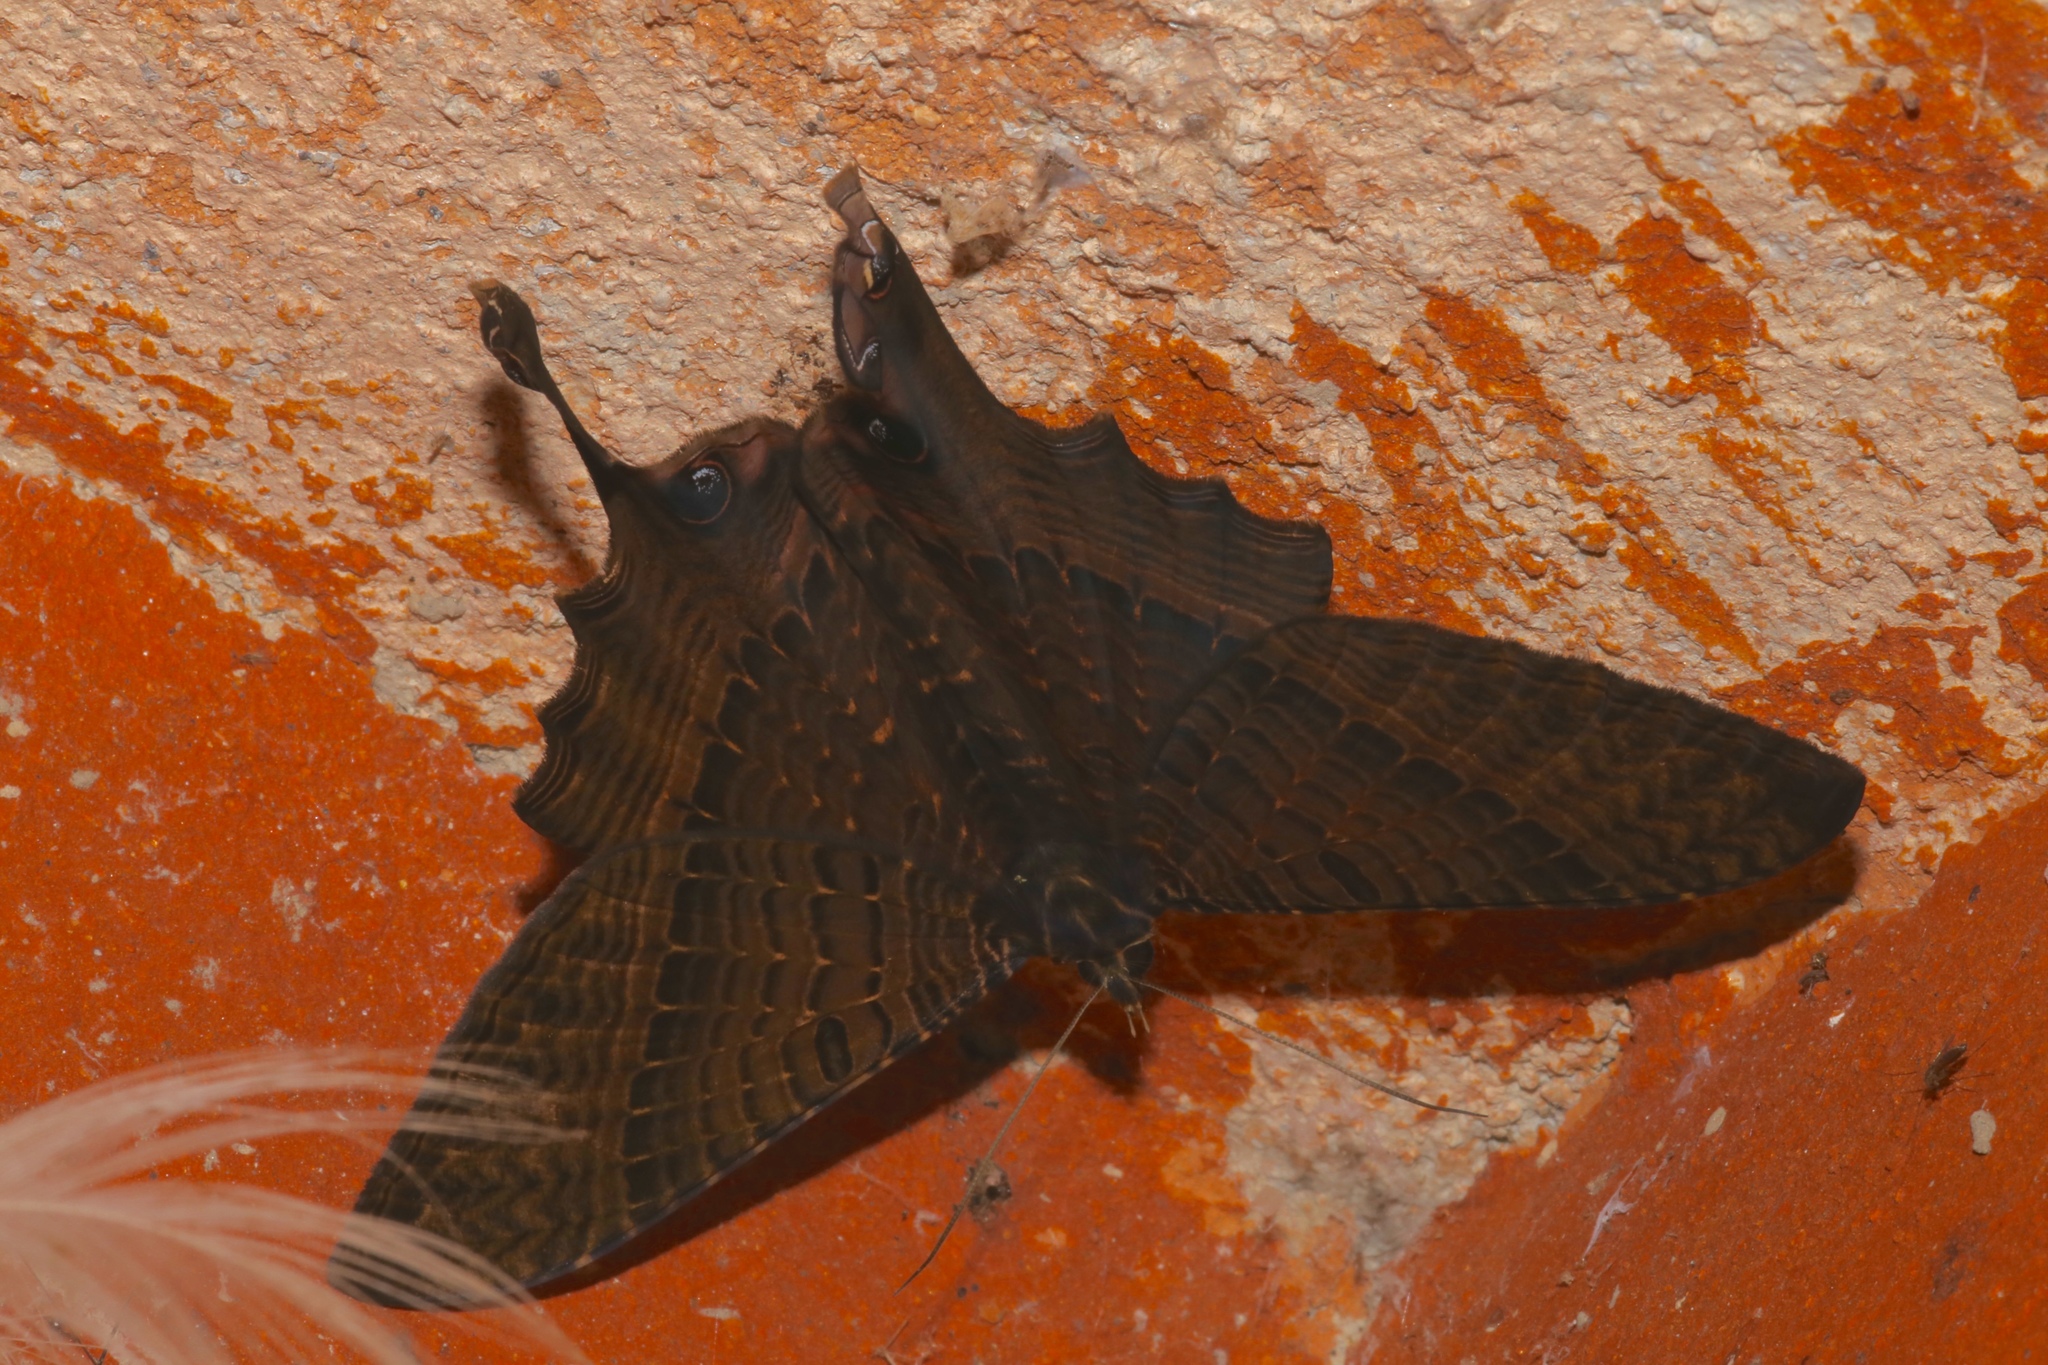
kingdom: Animalia
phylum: Arthropoda
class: Insecta
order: Lepidoptera
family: Sematuridae
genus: Nothus
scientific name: Nothus lunus
